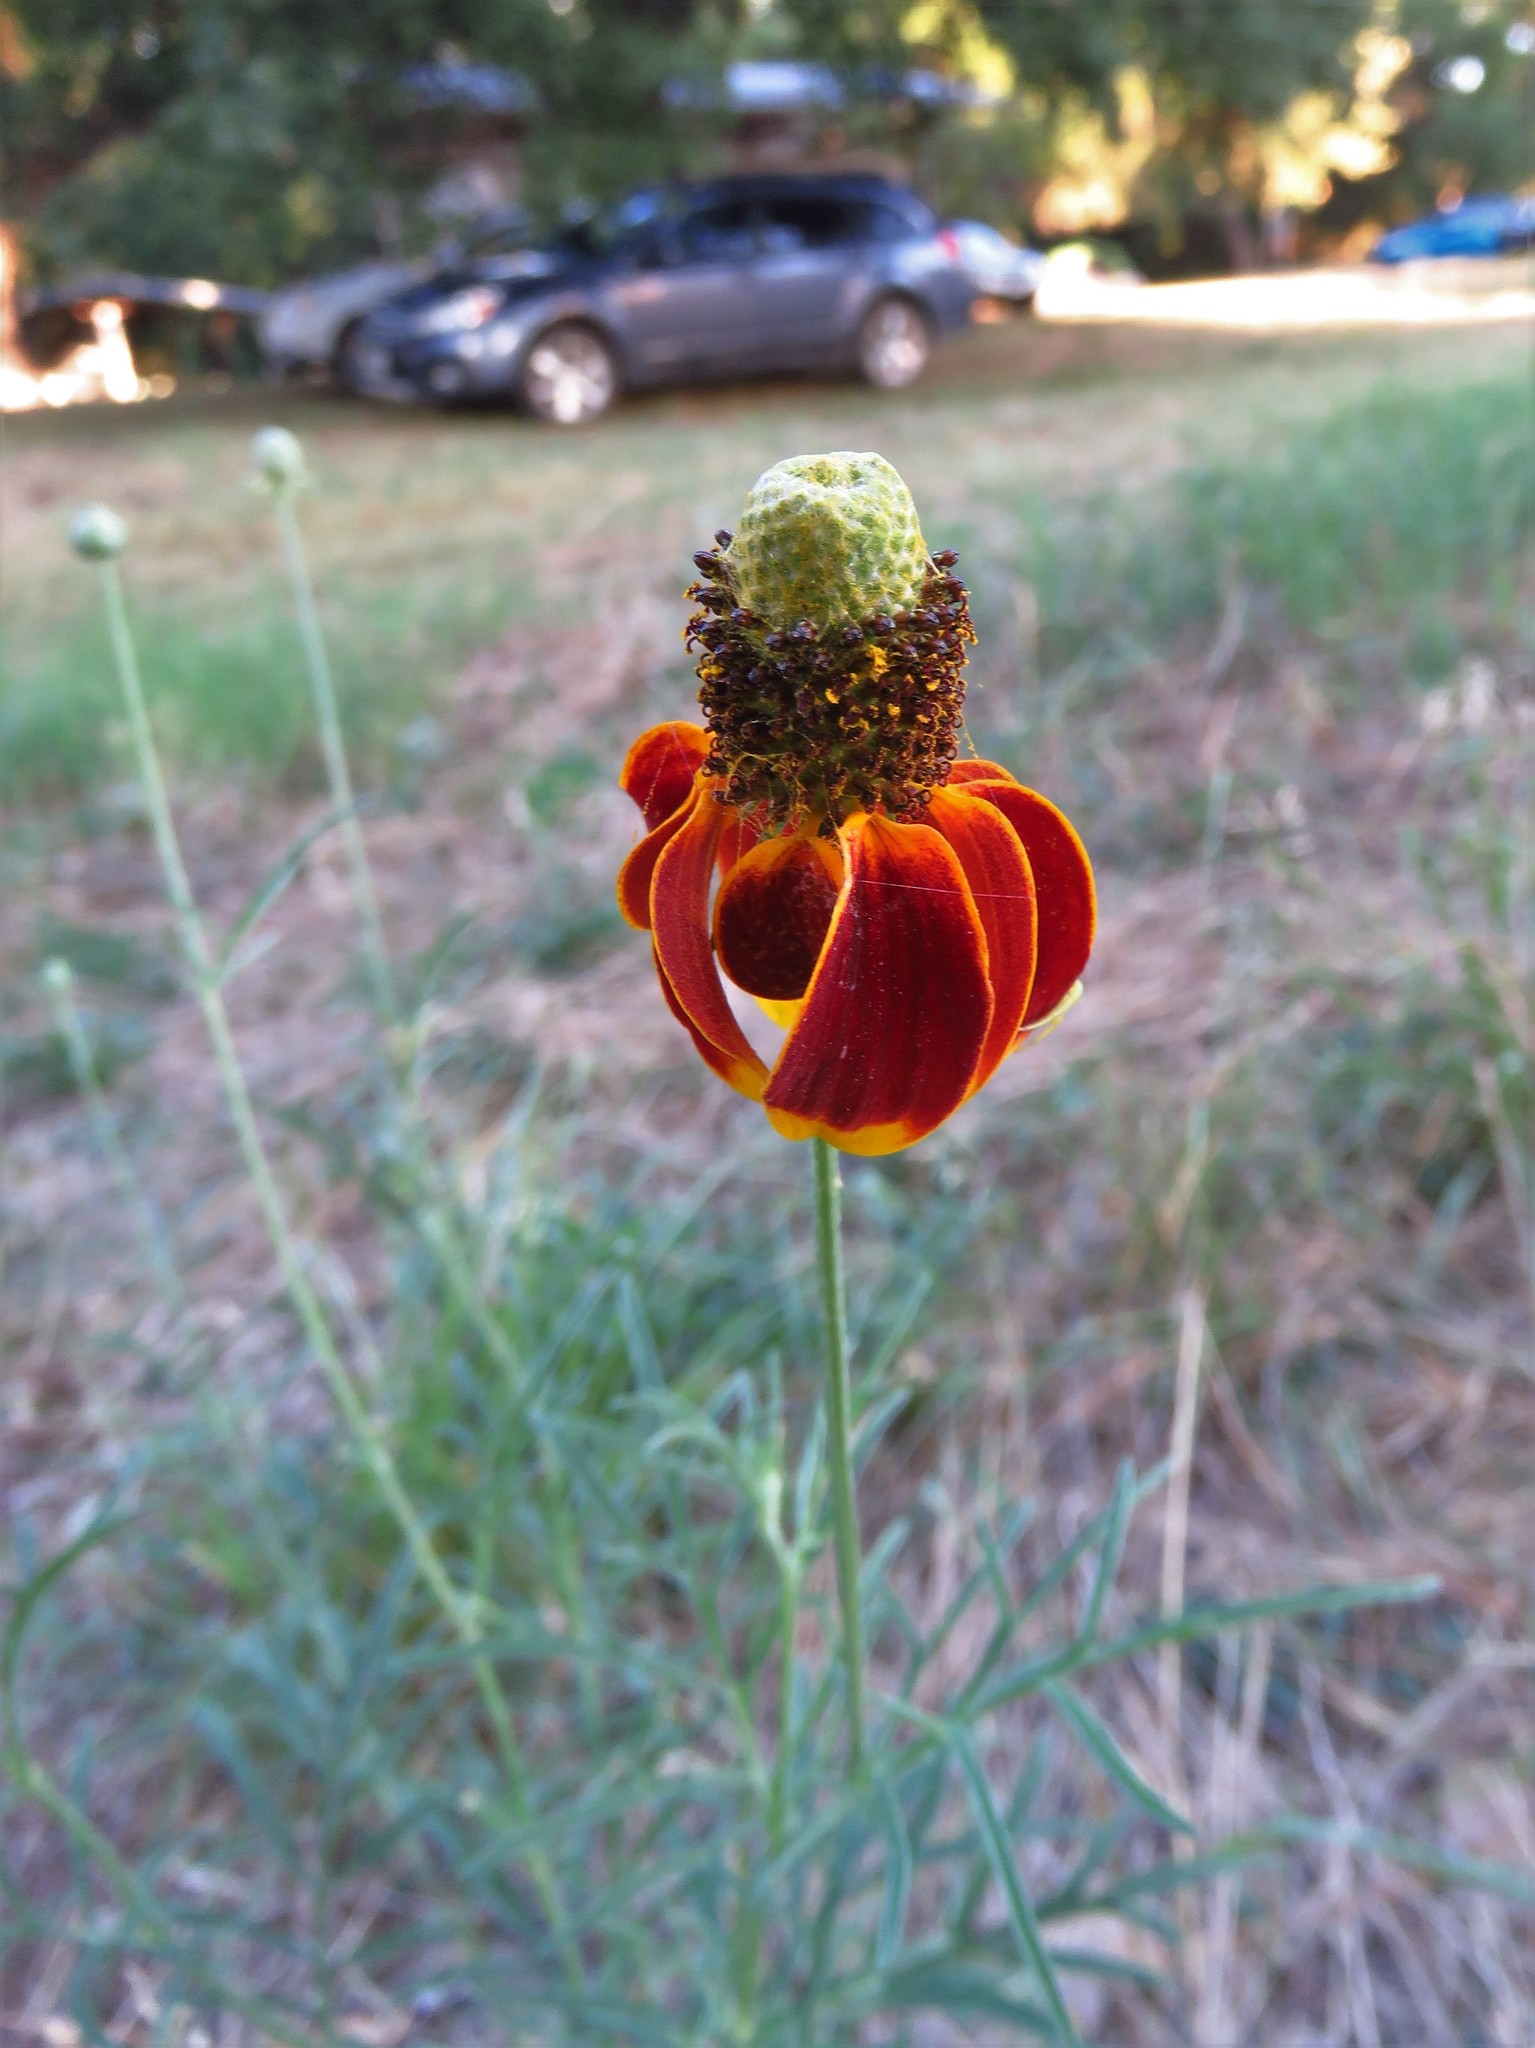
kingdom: Plantae
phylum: Tracheophyta
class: Magnoliopsida
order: Asterales
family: Asteraceae
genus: Ratibida
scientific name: Ratibida columnifera
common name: Prairie coneflower
